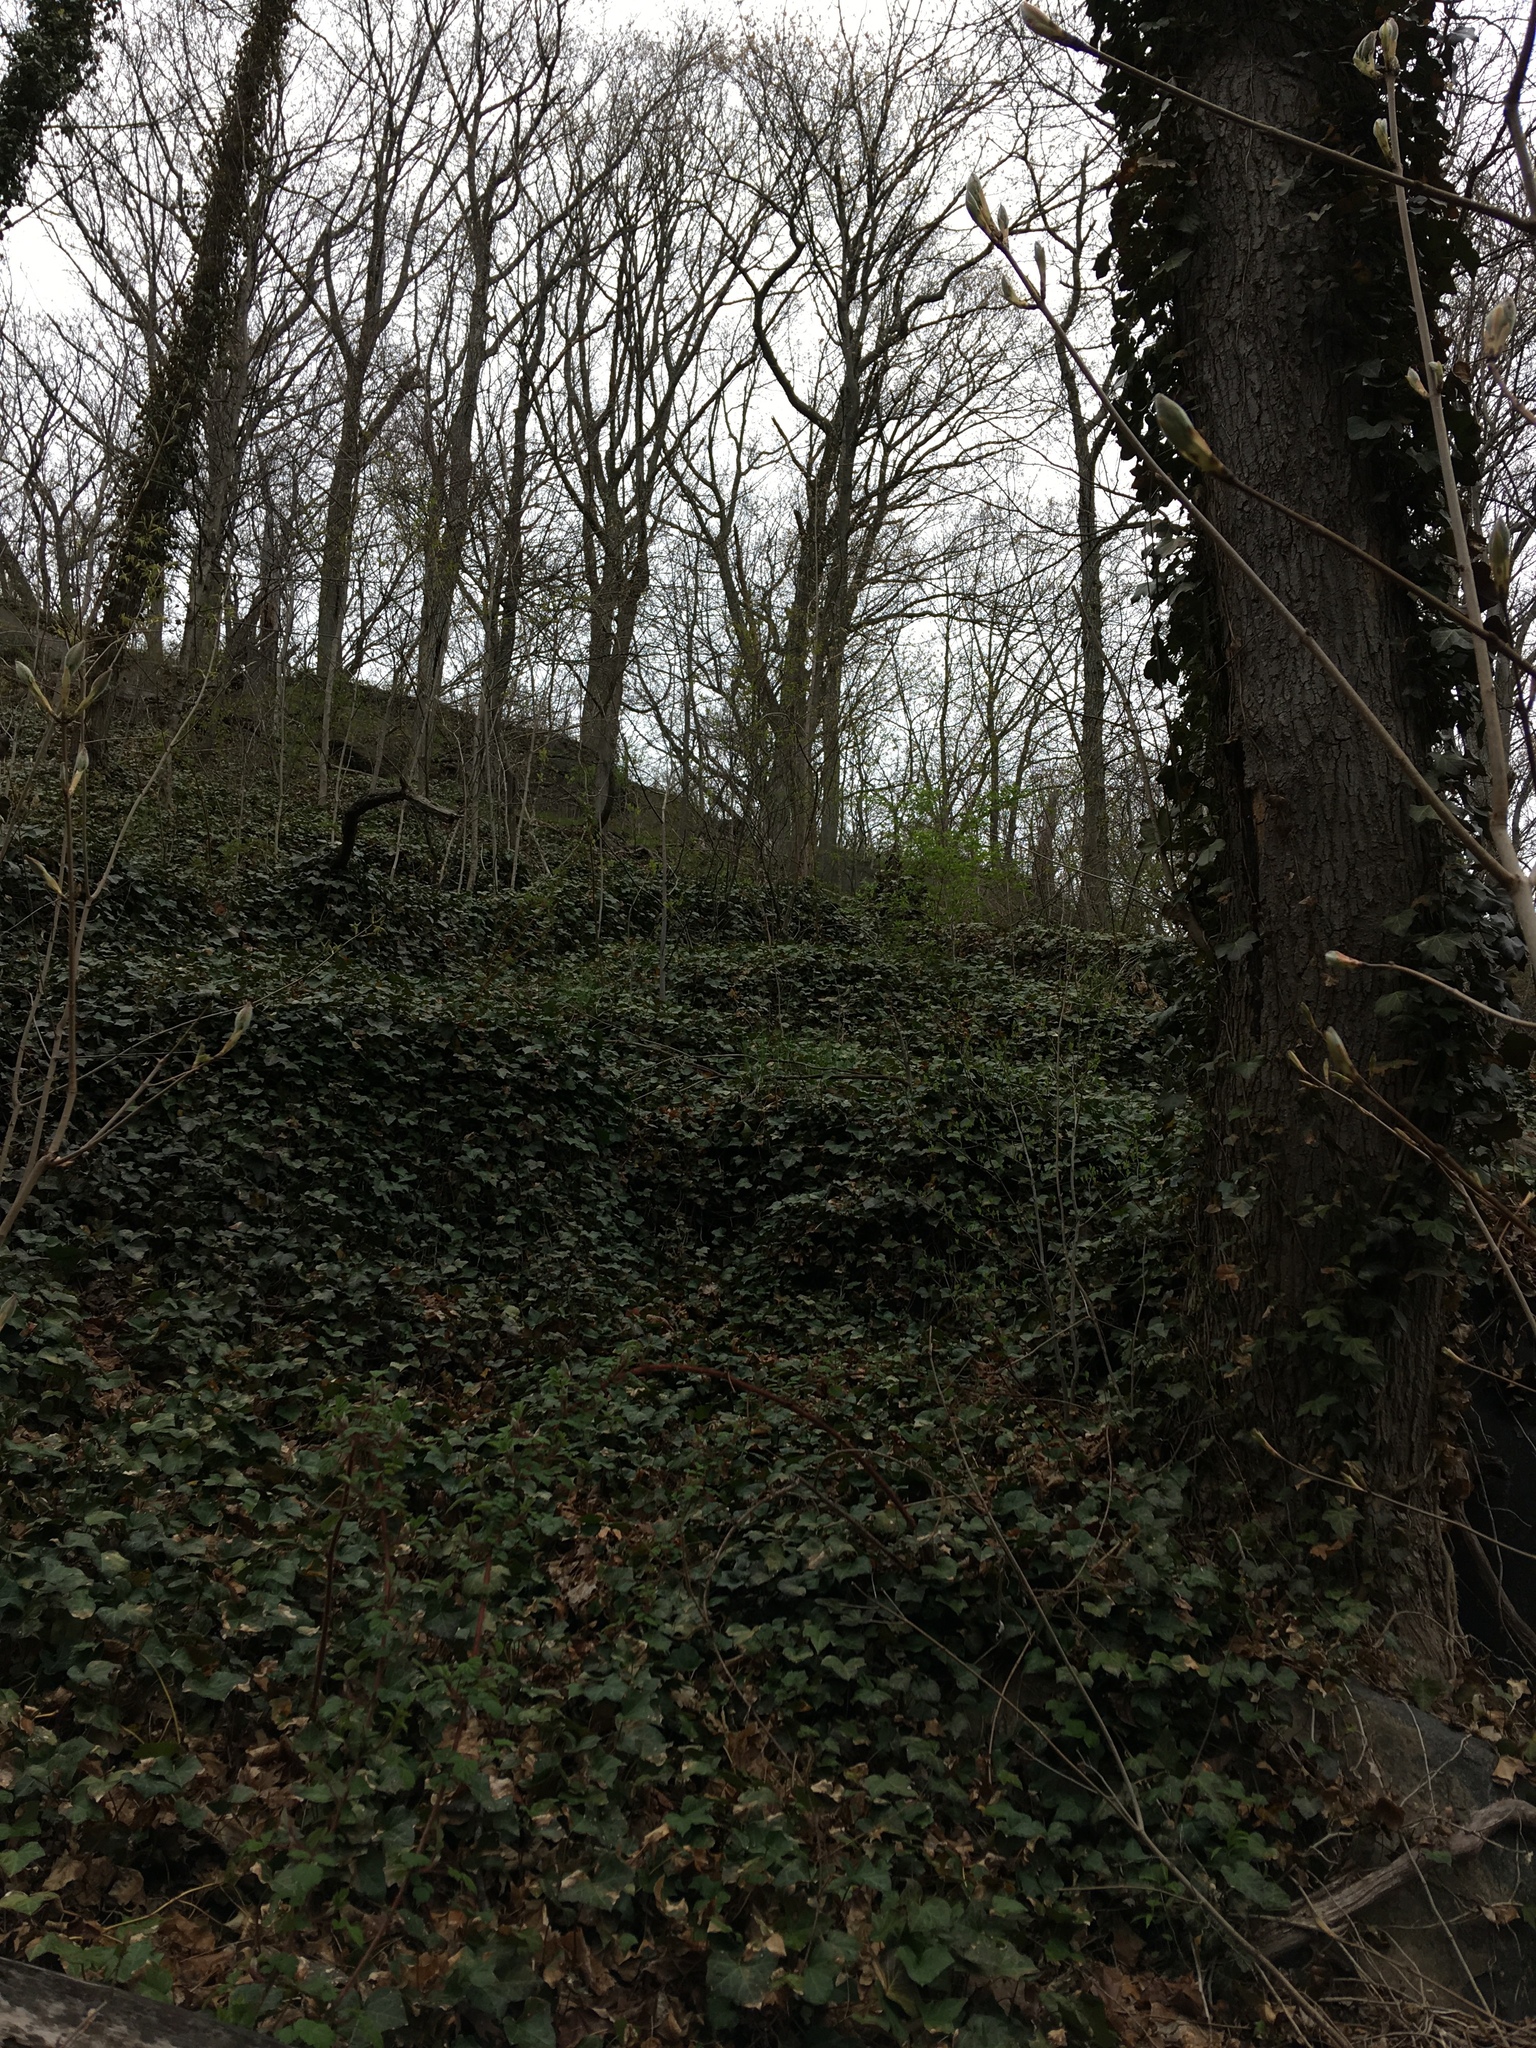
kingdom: Plantae
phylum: Tracheophyta
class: Magnoliopsida
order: Apiales
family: Araliaceae
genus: Hedera
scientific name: Hedera helix
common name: Ivy
